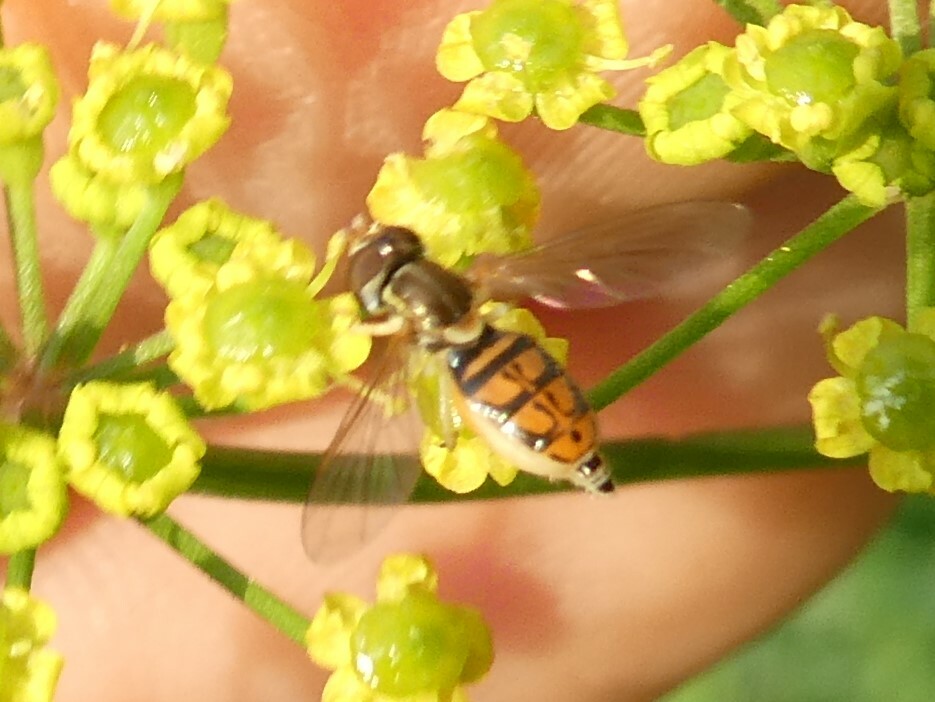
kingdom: Animalia
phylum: Arthropoda
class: Insecta
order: Diptera
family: Syrphidae
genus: Toxomerus
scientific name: Toxomerus marginatus
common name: Syrphid fly
